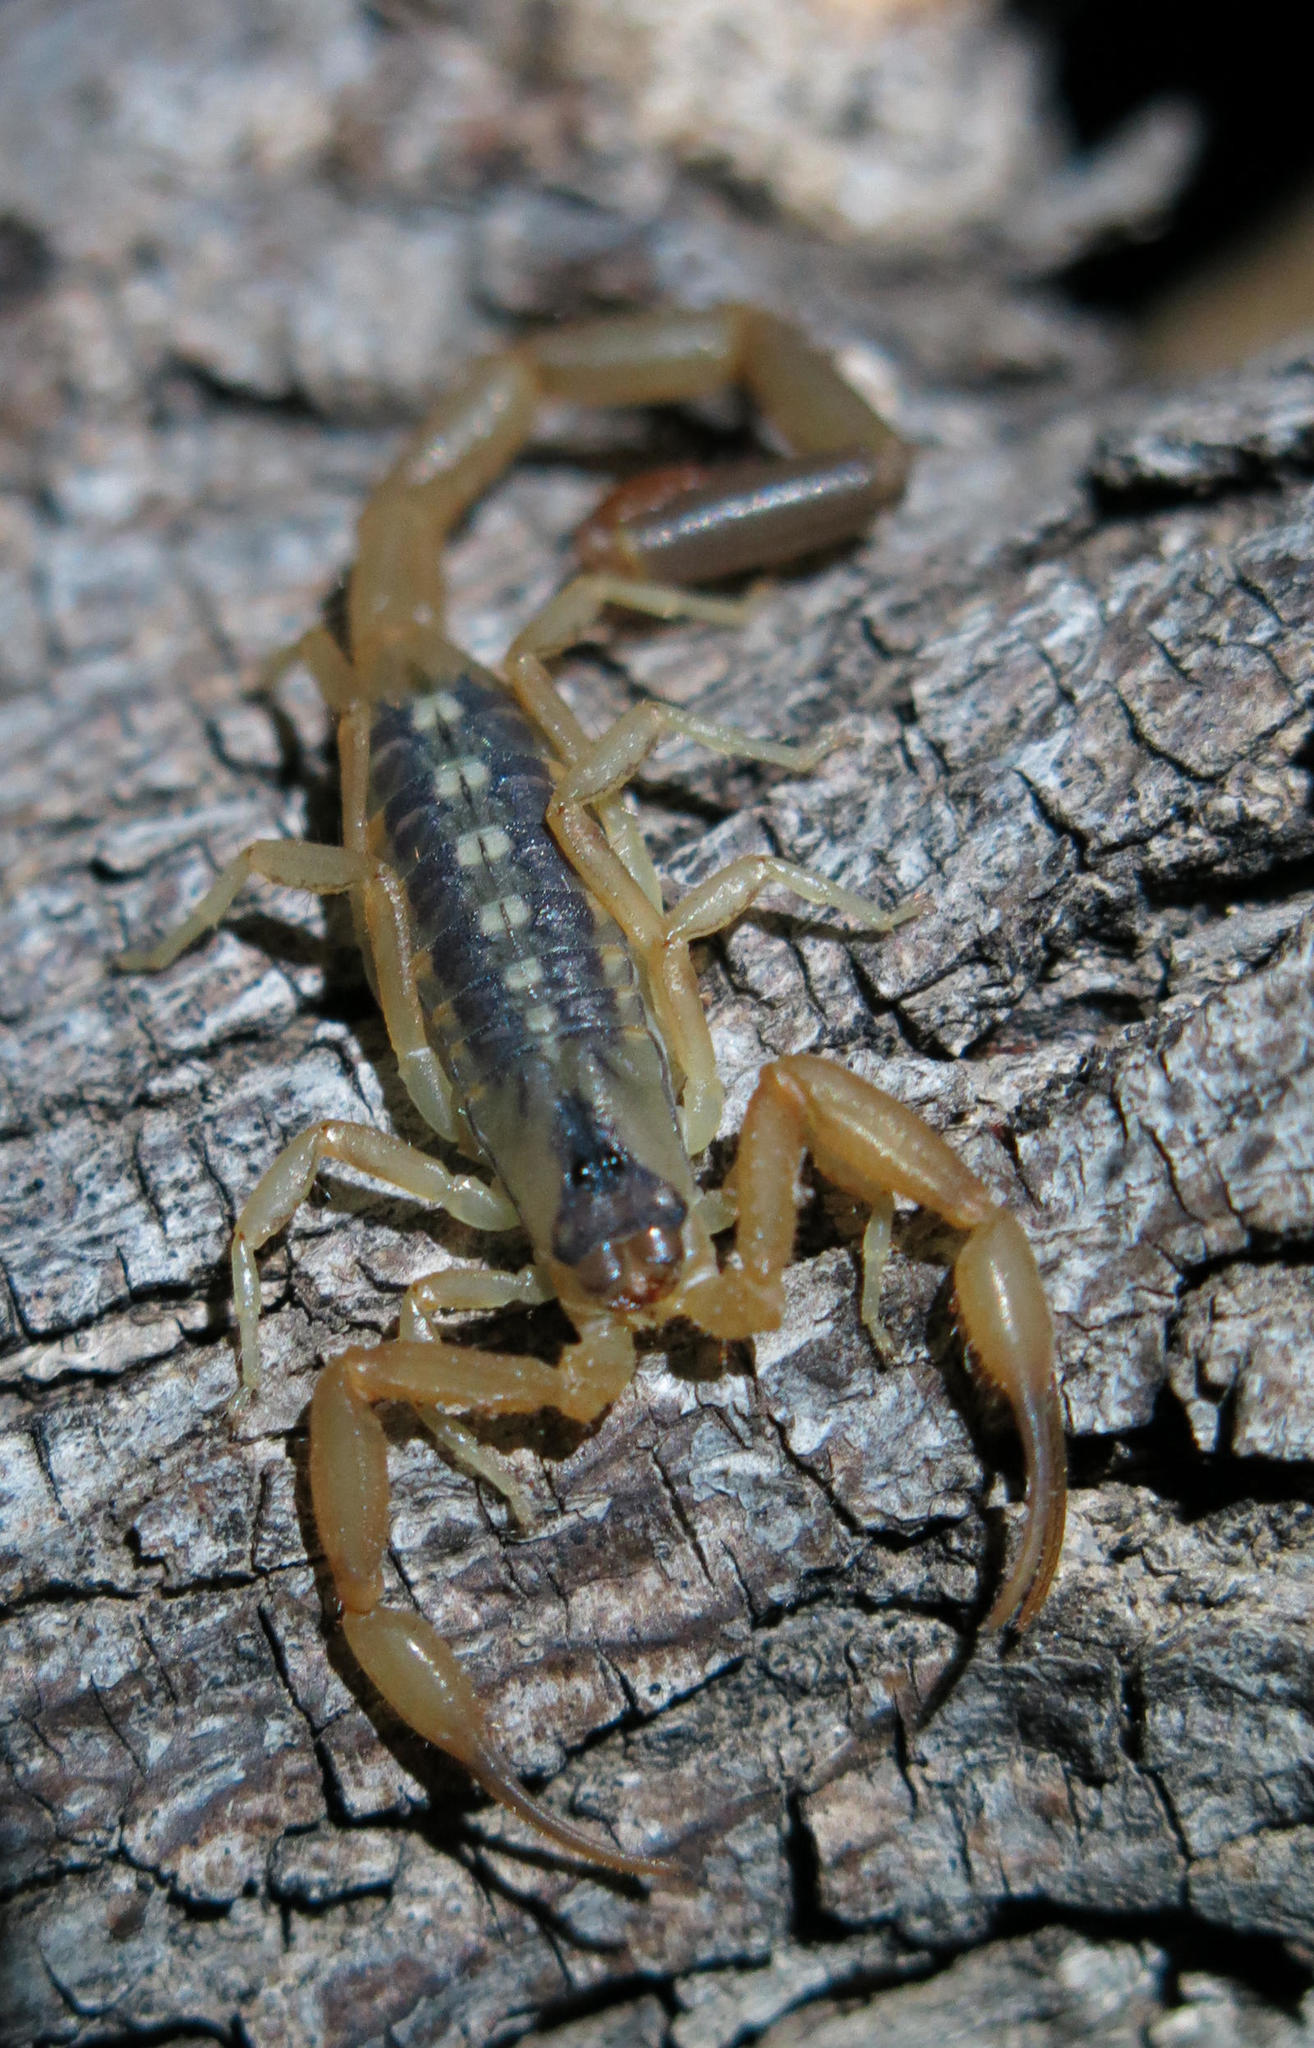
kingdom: Animalia
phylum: Arthropoda
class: Arachnida
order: Scorpiones
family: Buthidae
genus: Uroplectes
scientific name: Uroplectes vittatus
